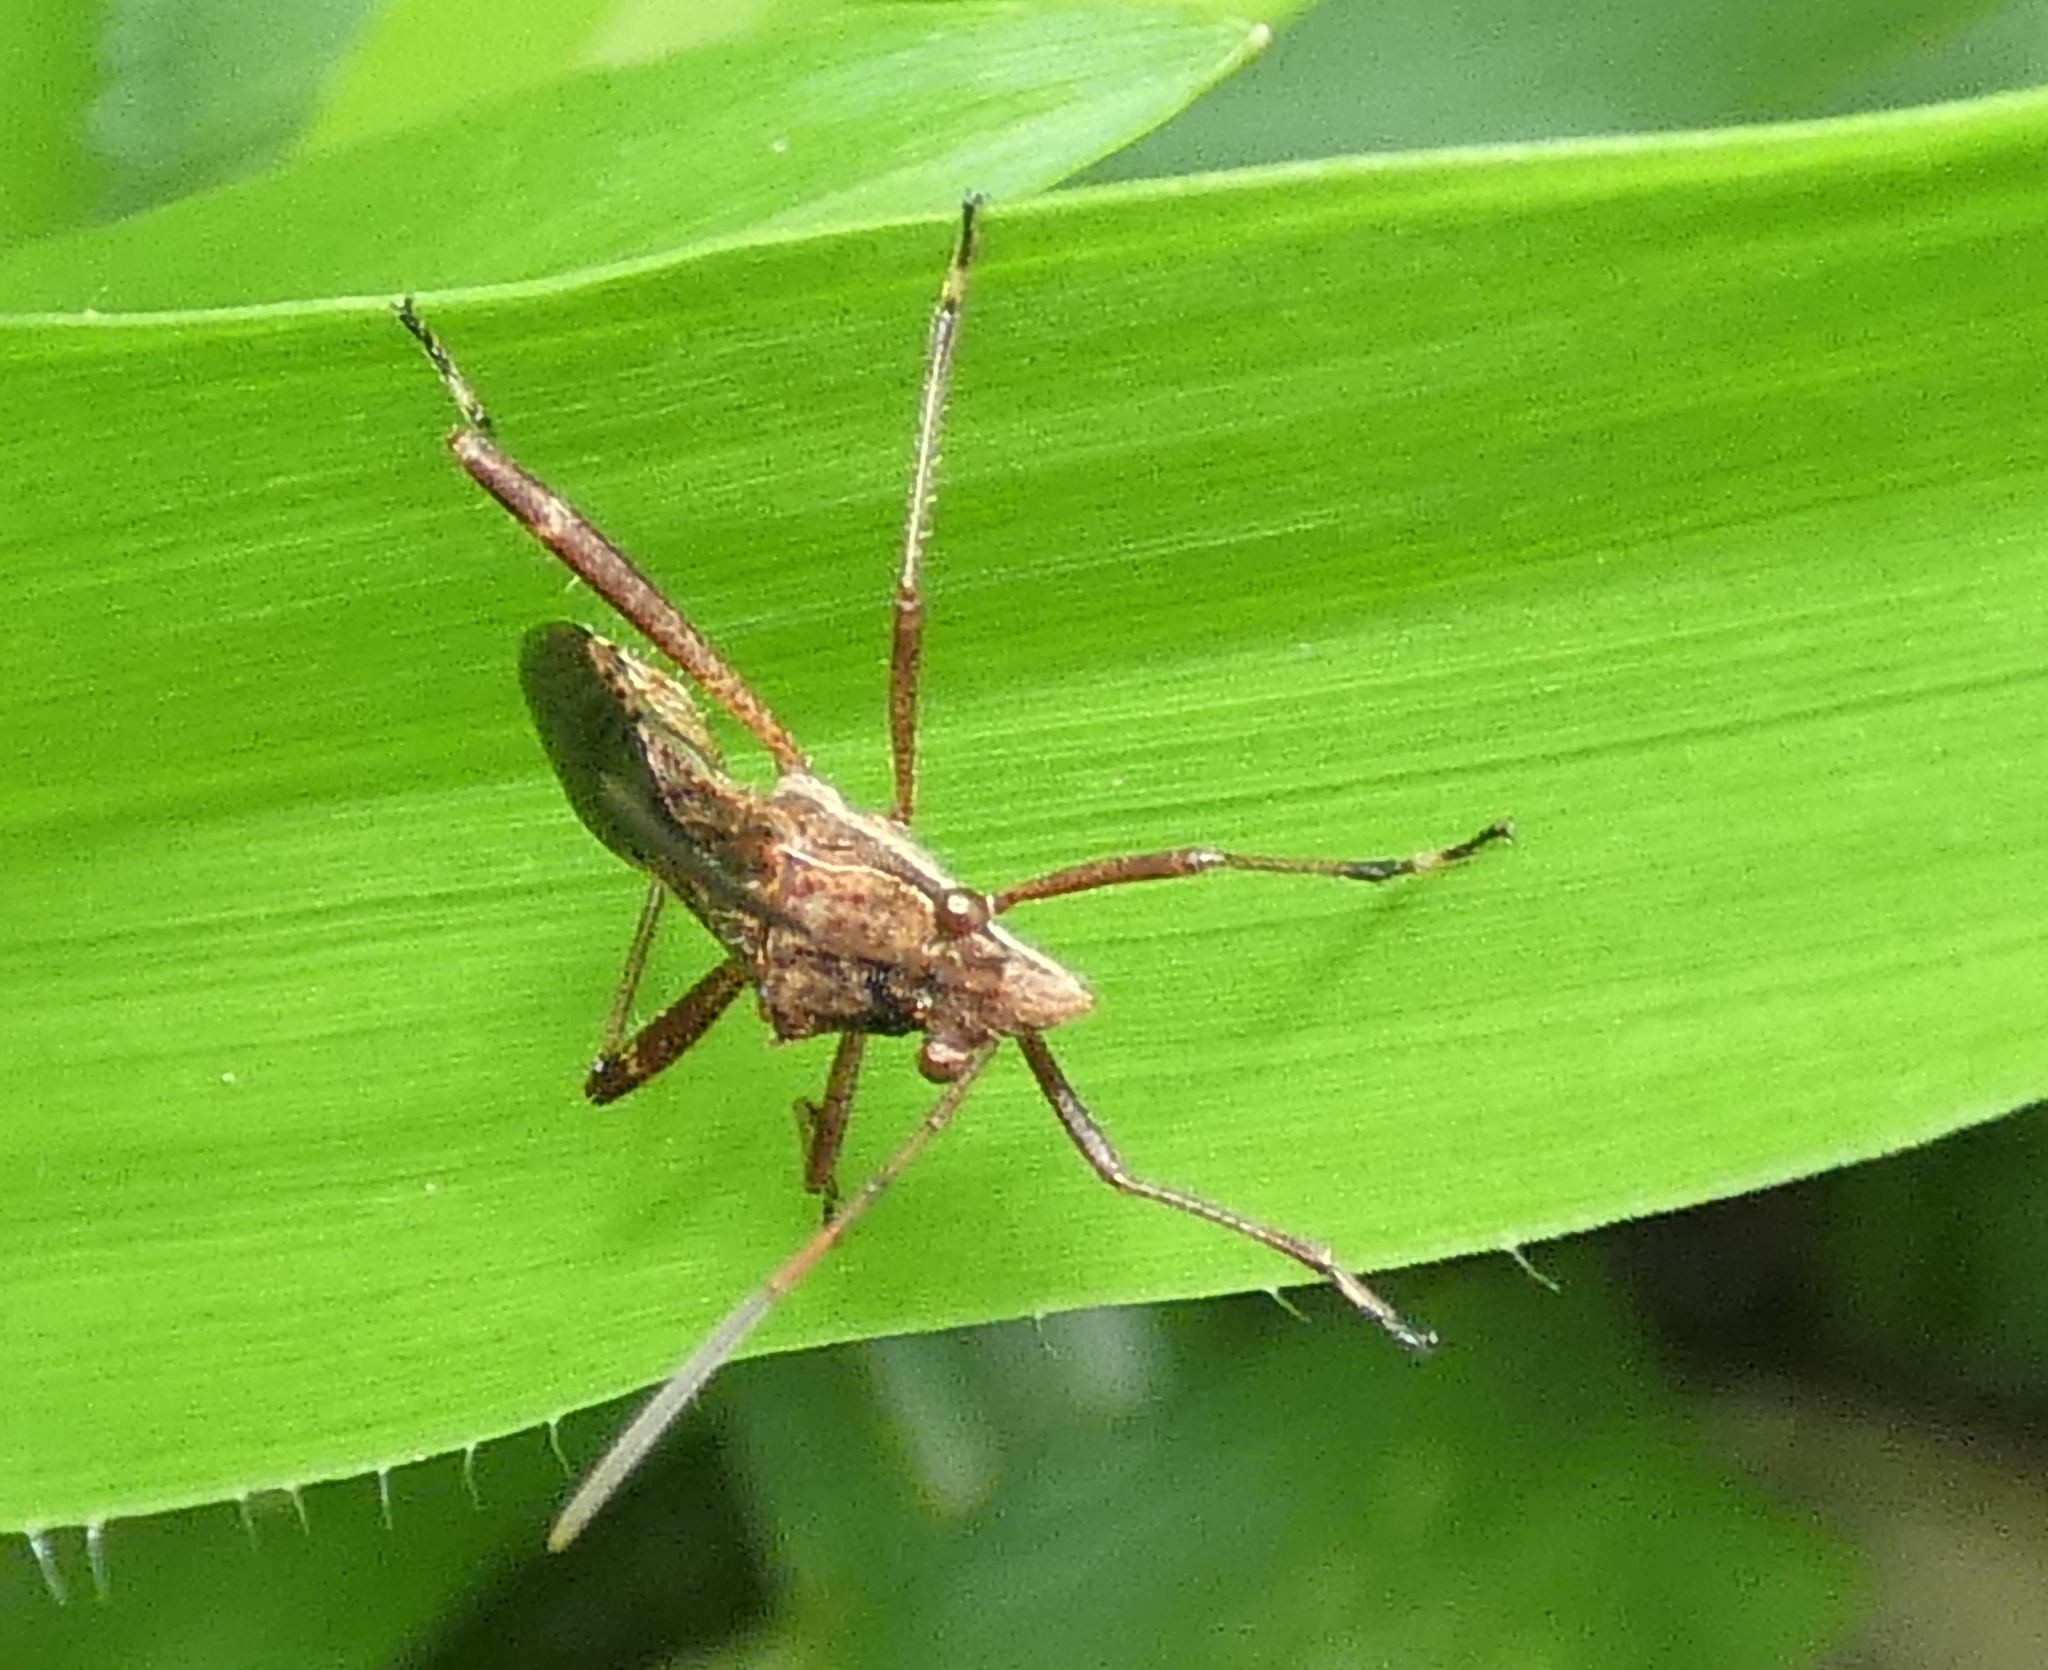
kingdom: Animalia
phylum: Arthropoda
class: Insecta
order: Hemiptera
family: Alydidae
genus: Neomegalotomus
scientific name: Neomegalotomus parvus
